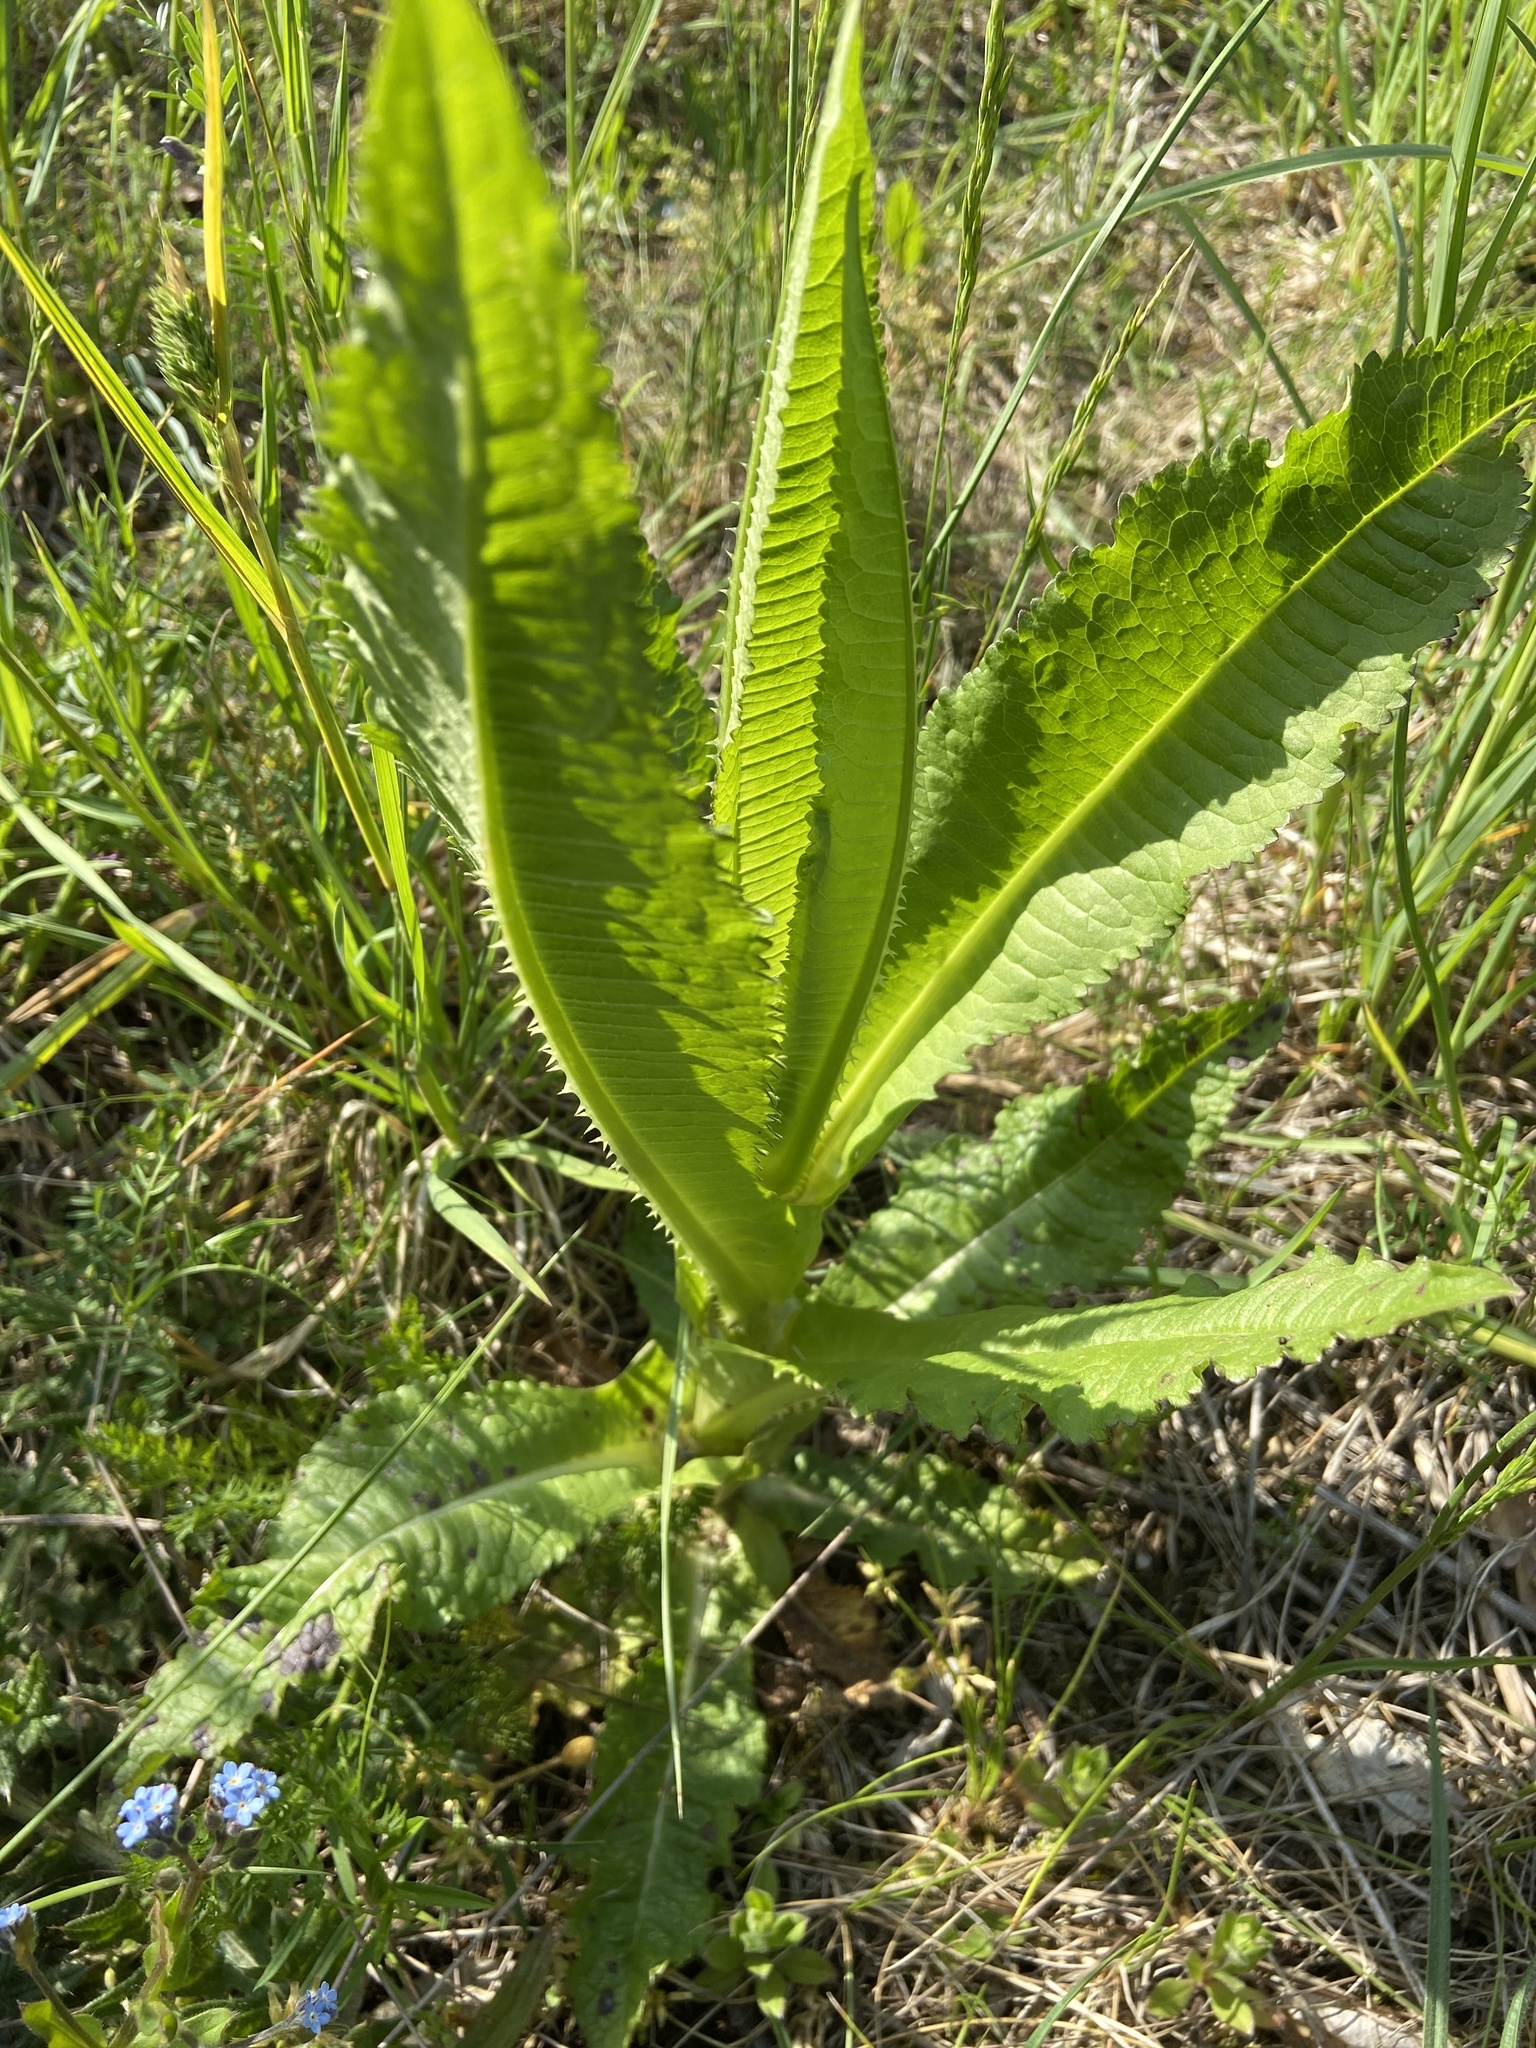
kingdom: Plantae
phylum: Tracheophyta
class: Magnoliopsida
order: Dipsacales
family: Caprifoliaceae
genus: Dipsacus
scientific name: Dipsacus fullonum
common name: Teasel
